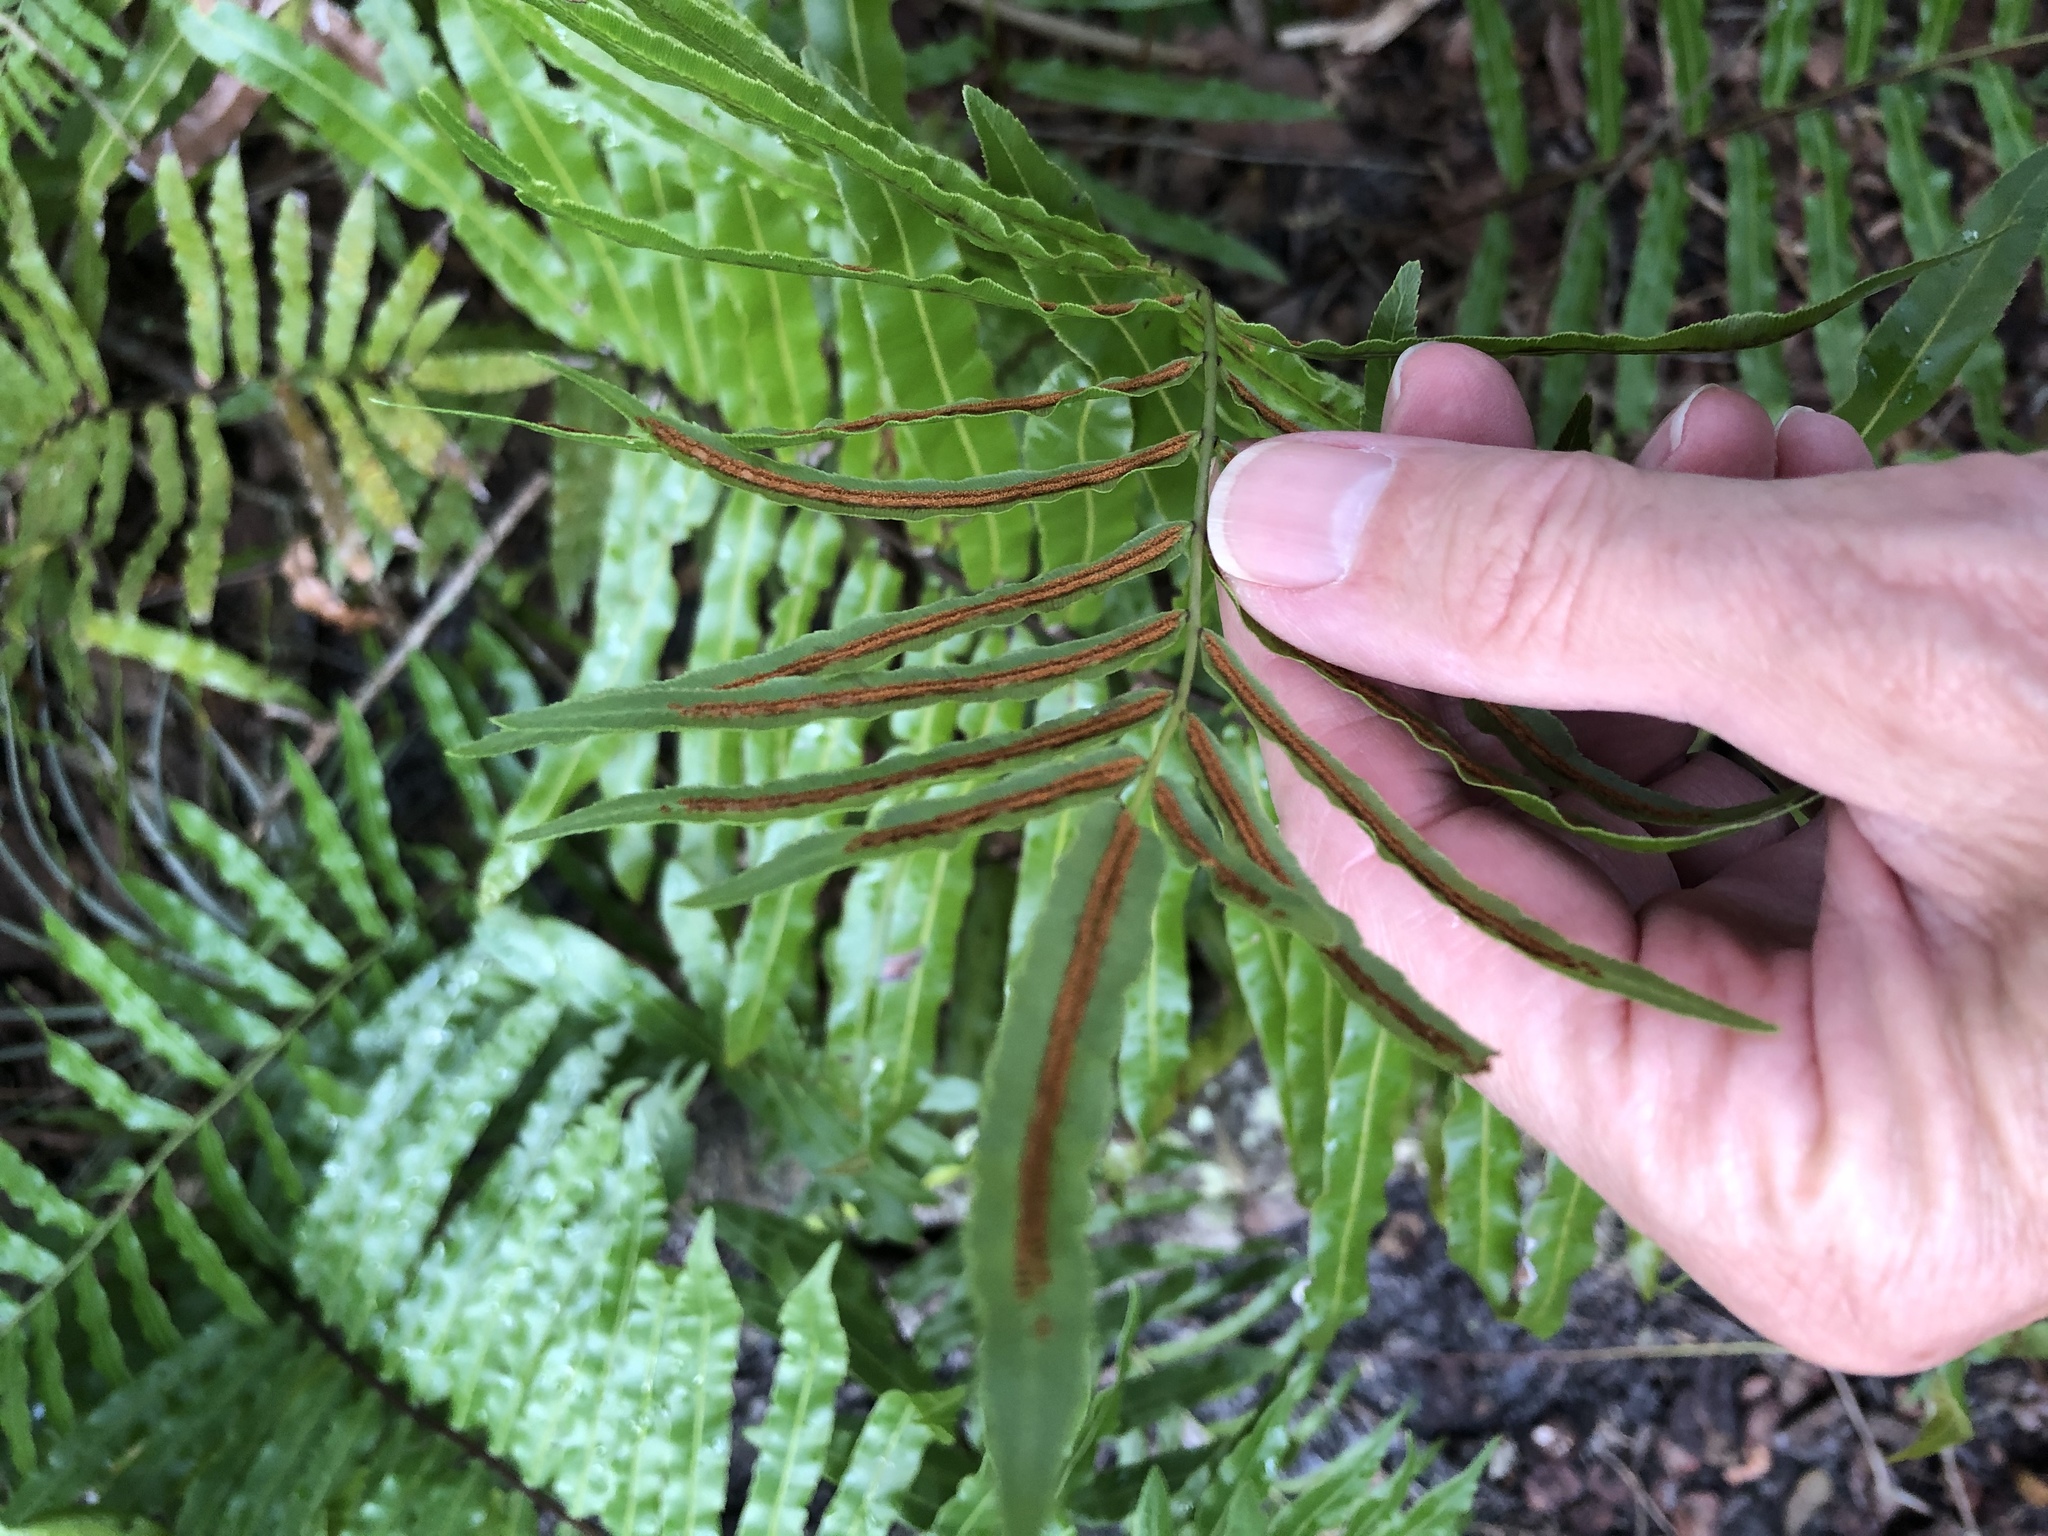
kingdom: Plantae
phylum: Tracheophyta
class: Polypodiopsida
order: Polypodiales
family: Blechnaceae
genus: Telmatoblechnum
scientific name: Telmatoblechnum serrulatum
